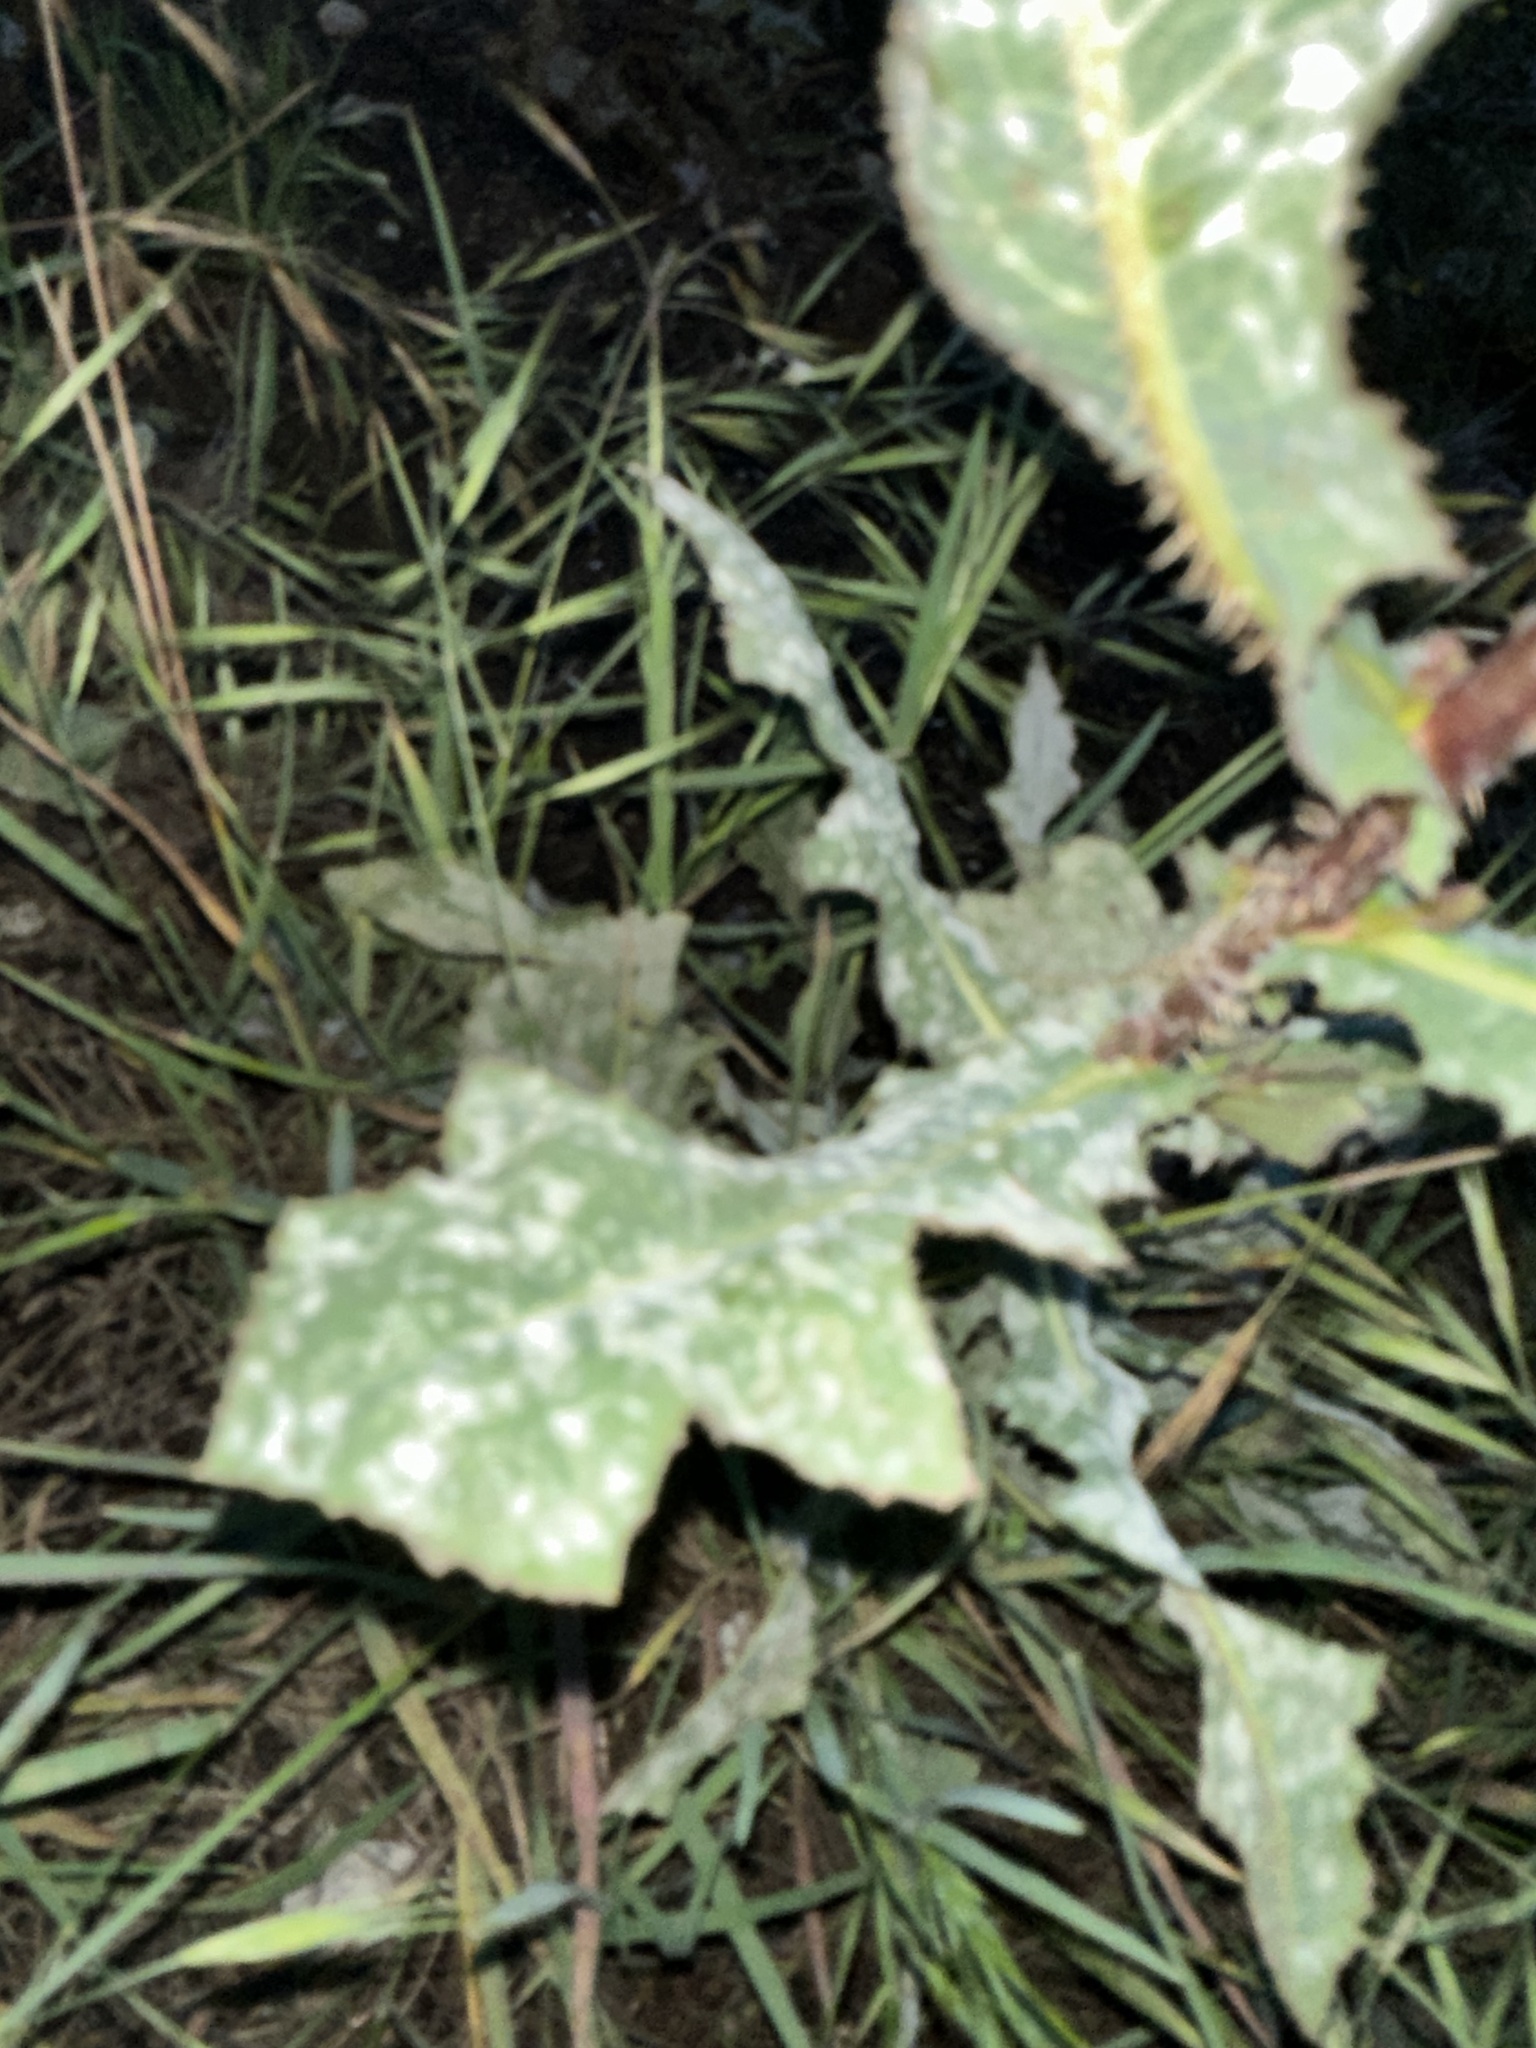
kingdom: Plantae
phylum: Tracheophyta
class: Magnoliopsida
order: Asterales
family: Asteraceae
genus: Lactuca
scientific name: Lactuca serriola
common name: Prickly lettuce
